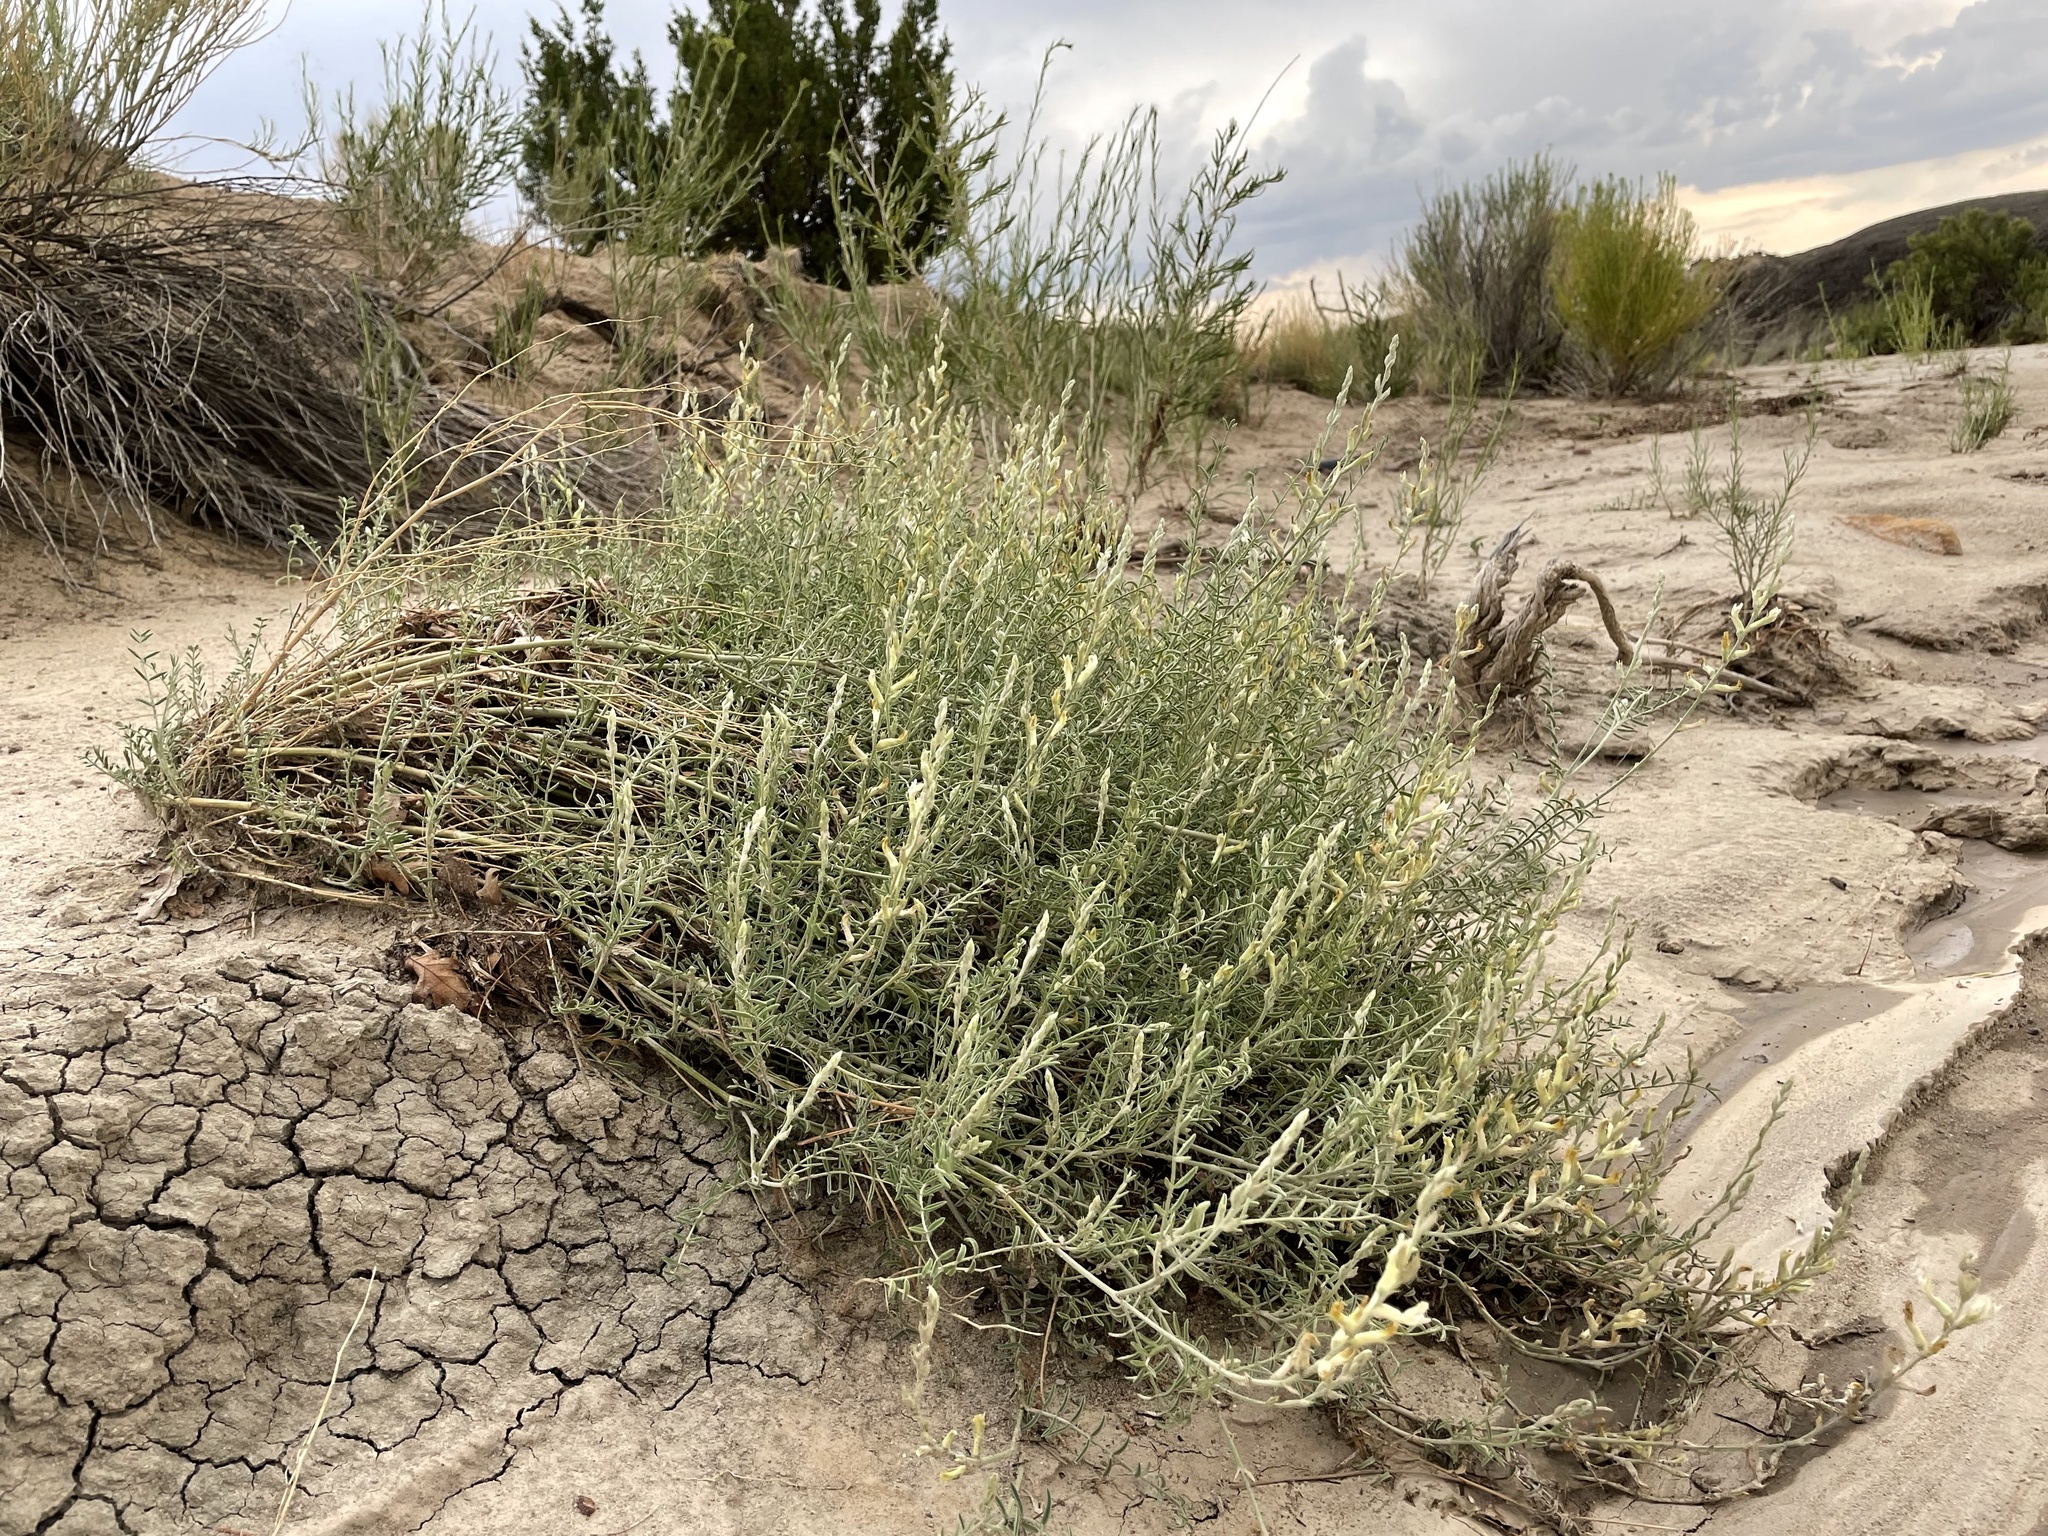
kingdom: Plantae
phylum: Tracheophyta
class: Magnoliopsida
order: Fabales
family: Fabaceae
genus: Astragalus
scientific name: Astragalus albulus
